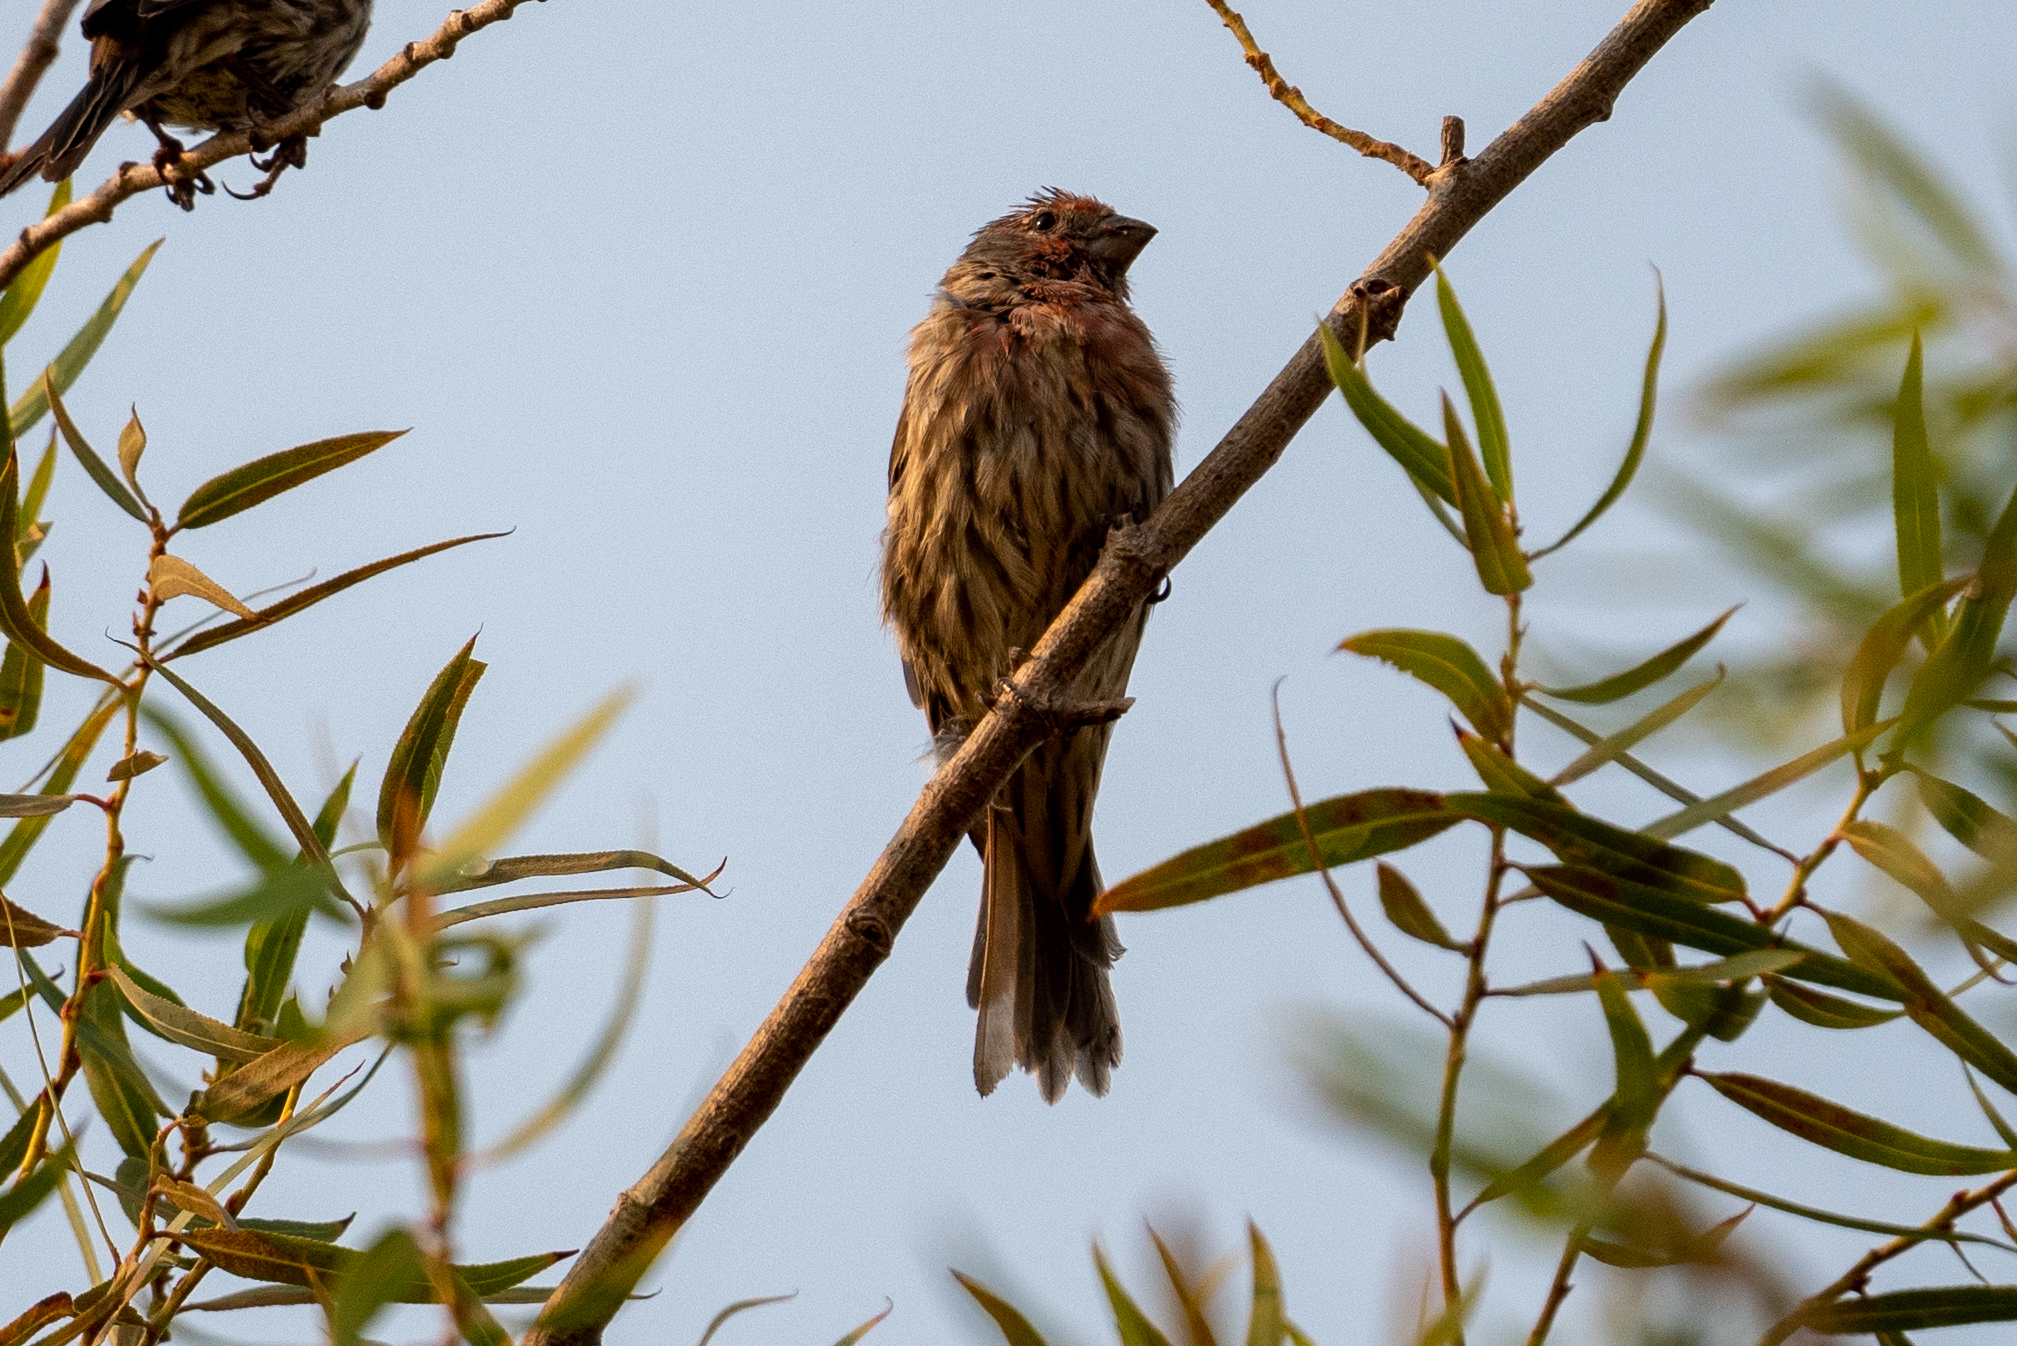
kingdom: Animalia
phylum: Chordata
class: Aves
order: Passeriformes
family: Fringillidae
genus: Haemorhous
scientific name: Haemorhous mexicanus
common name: House finch
